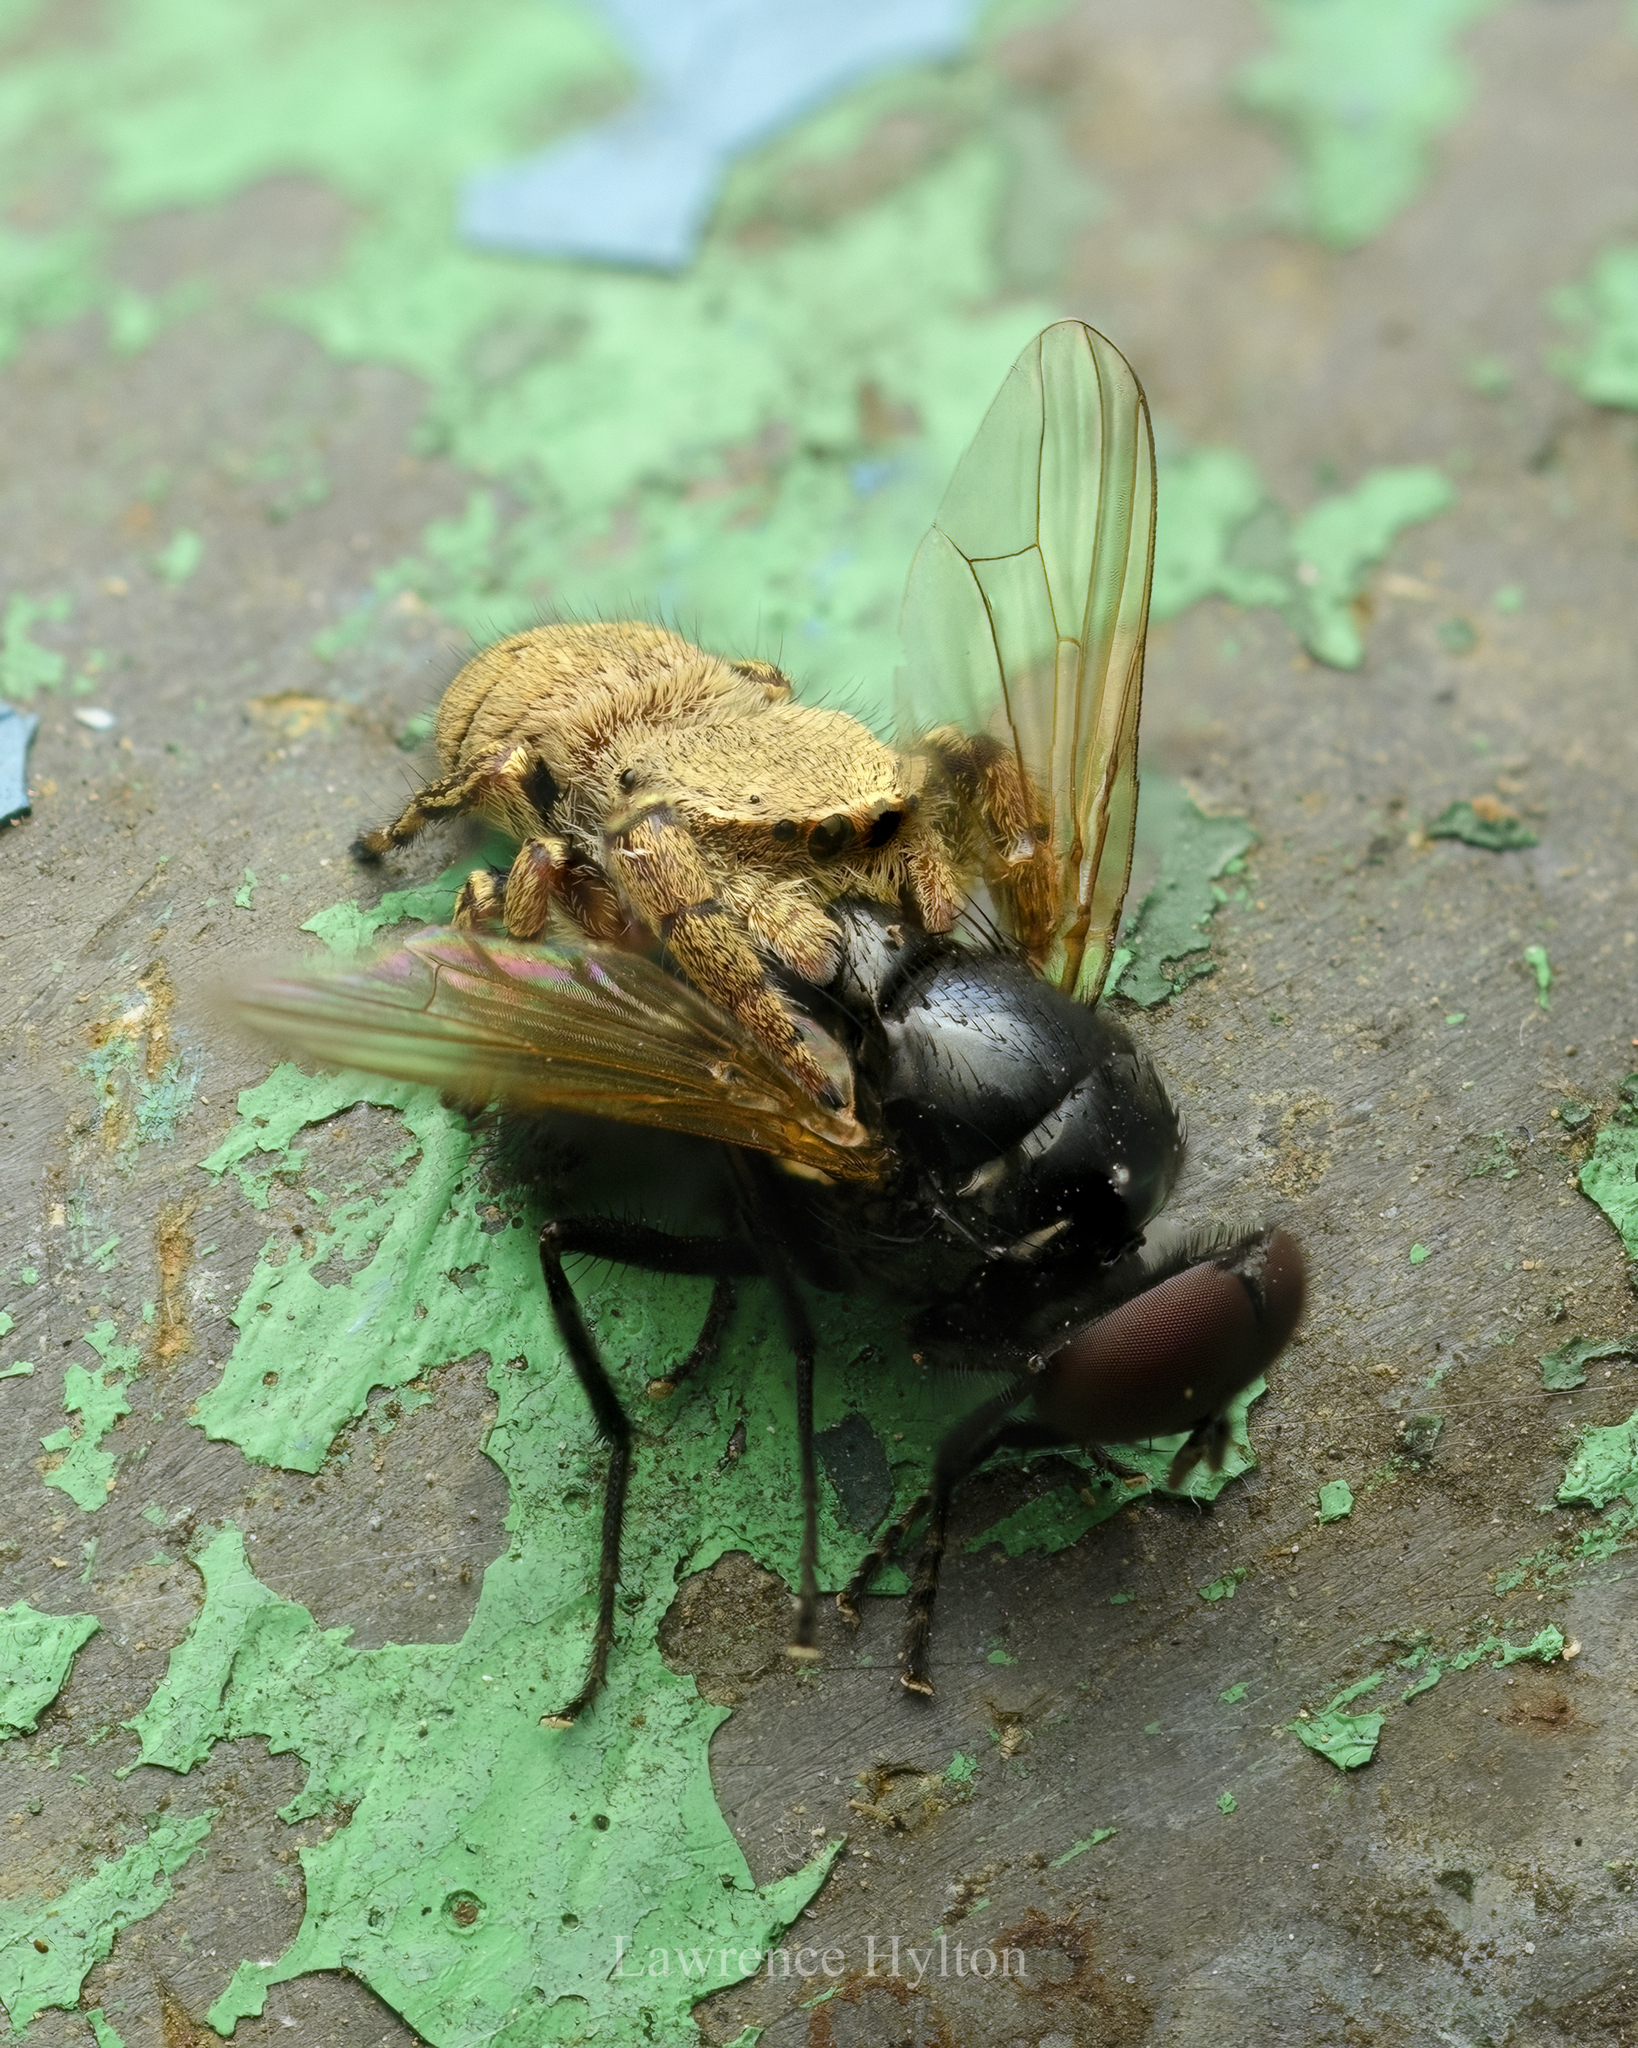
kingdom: Animalia
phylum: Arthropoda
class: Arachnida
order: Araneae
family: Salticidae
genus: Rhene
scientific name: Rhene flavicomans
